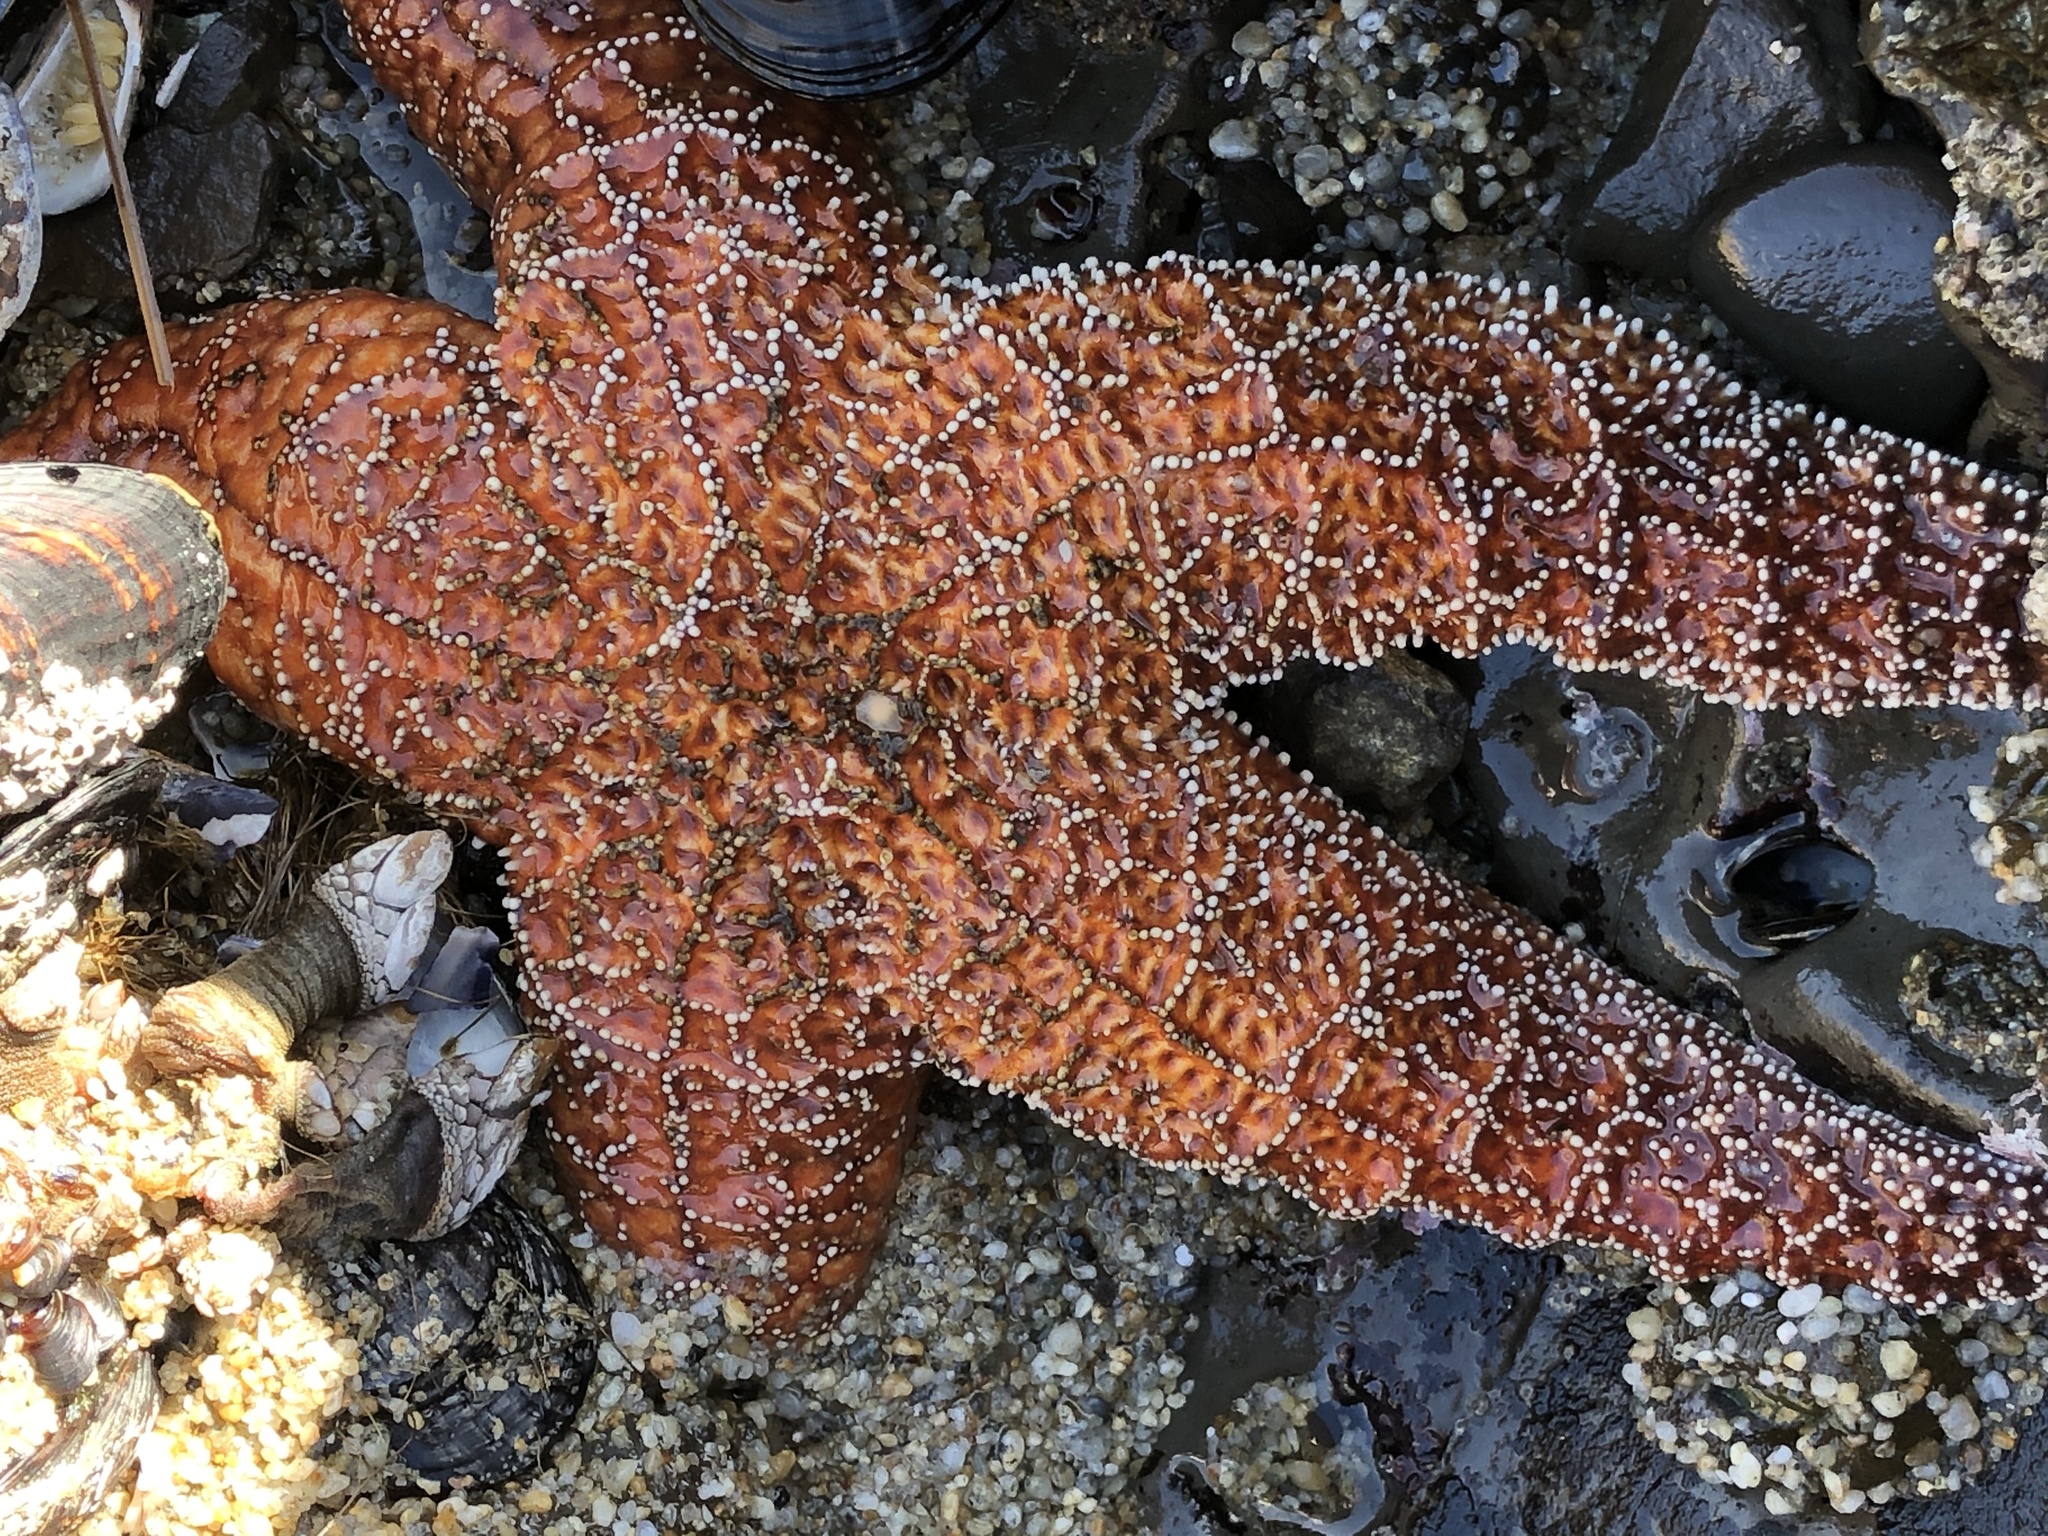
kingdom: Animalia
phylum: Echinodermata
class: Asteroidea
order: Forcipulatida
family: Asteriidae
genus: Pisaster
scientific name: Pisaster ochraceus
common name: Ochre stars
